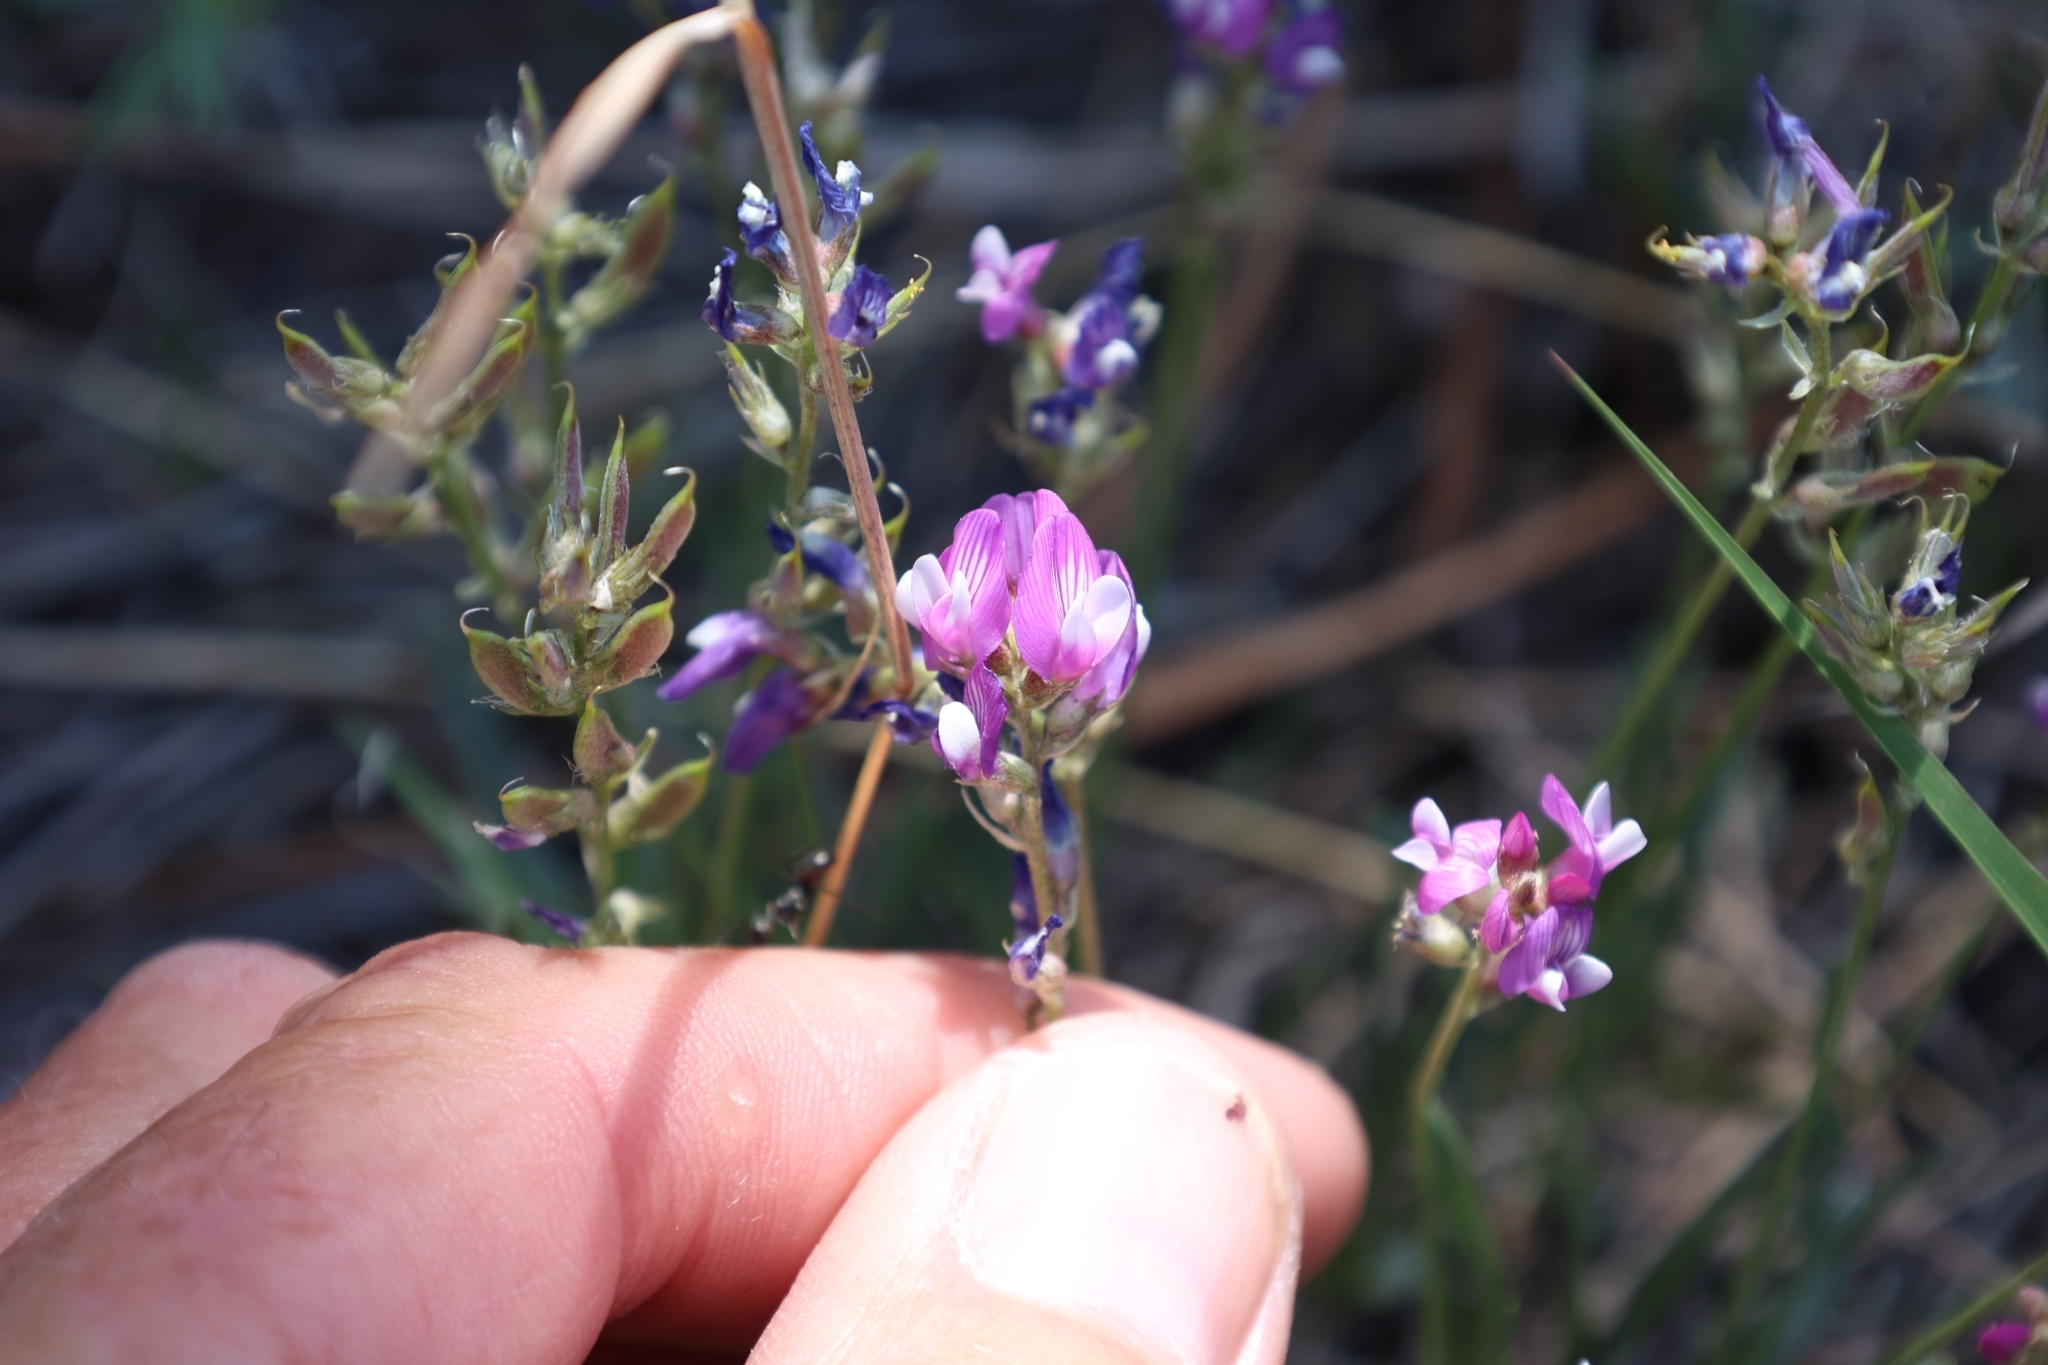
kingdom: Plantae
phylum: Tracheophyta
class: Magnoliopsida
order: Fabales
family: Fabaceae
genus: Astragalus
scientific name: Astragalus spatulatus
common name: Draba milk-vetch
